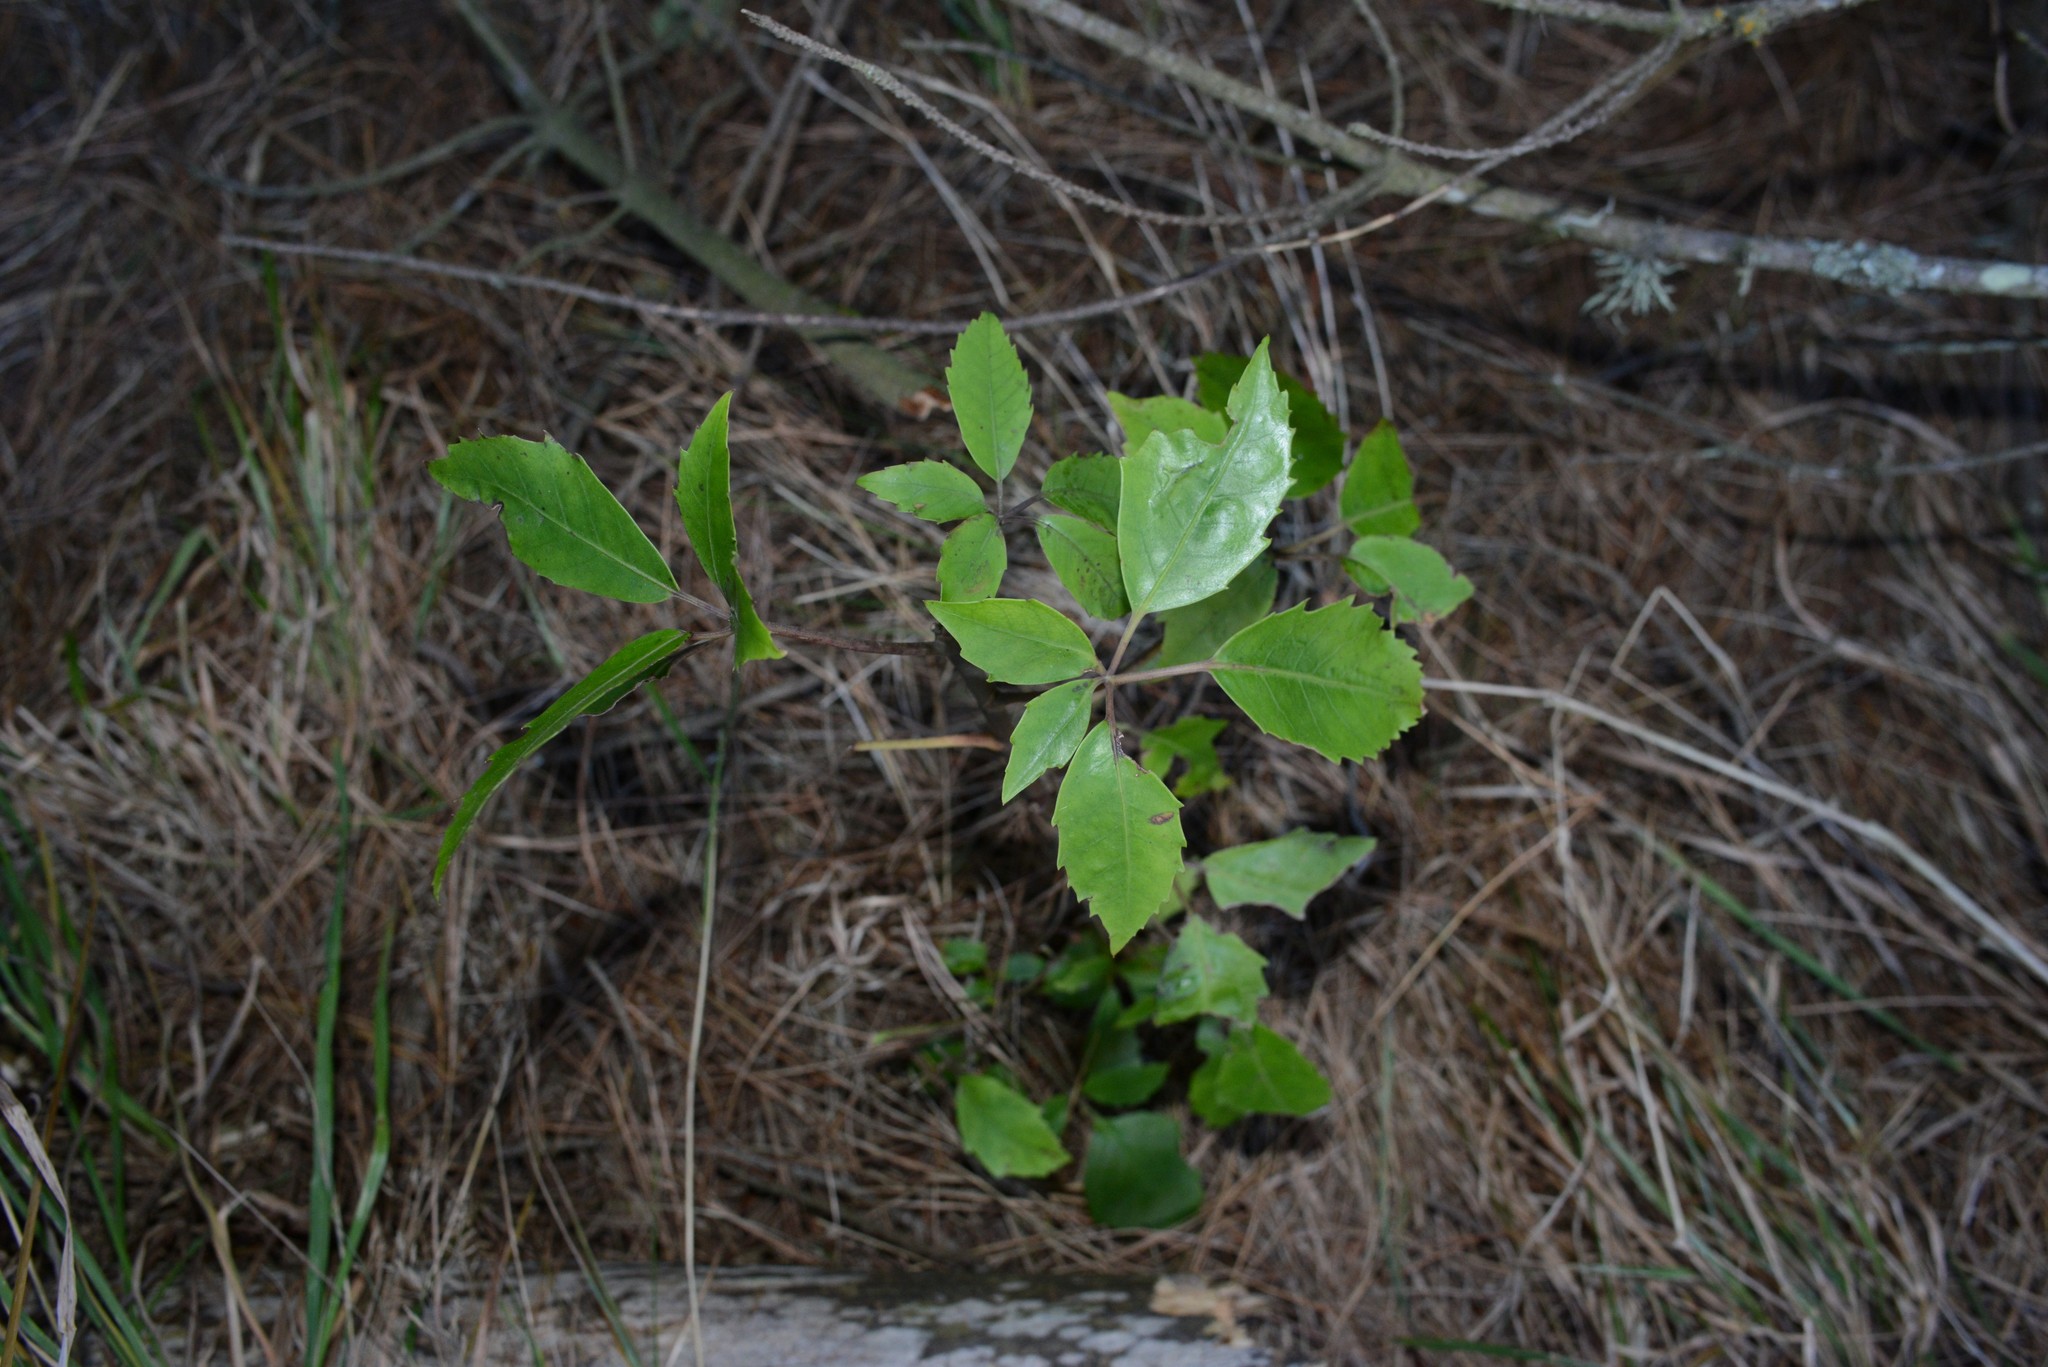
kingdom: Plantae
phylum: Tracheophyta
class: Magnoliopsida
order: Apiales
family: Araliaceae
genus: Neopanax
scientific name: Neopanax arboreus
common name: Five-fingers
